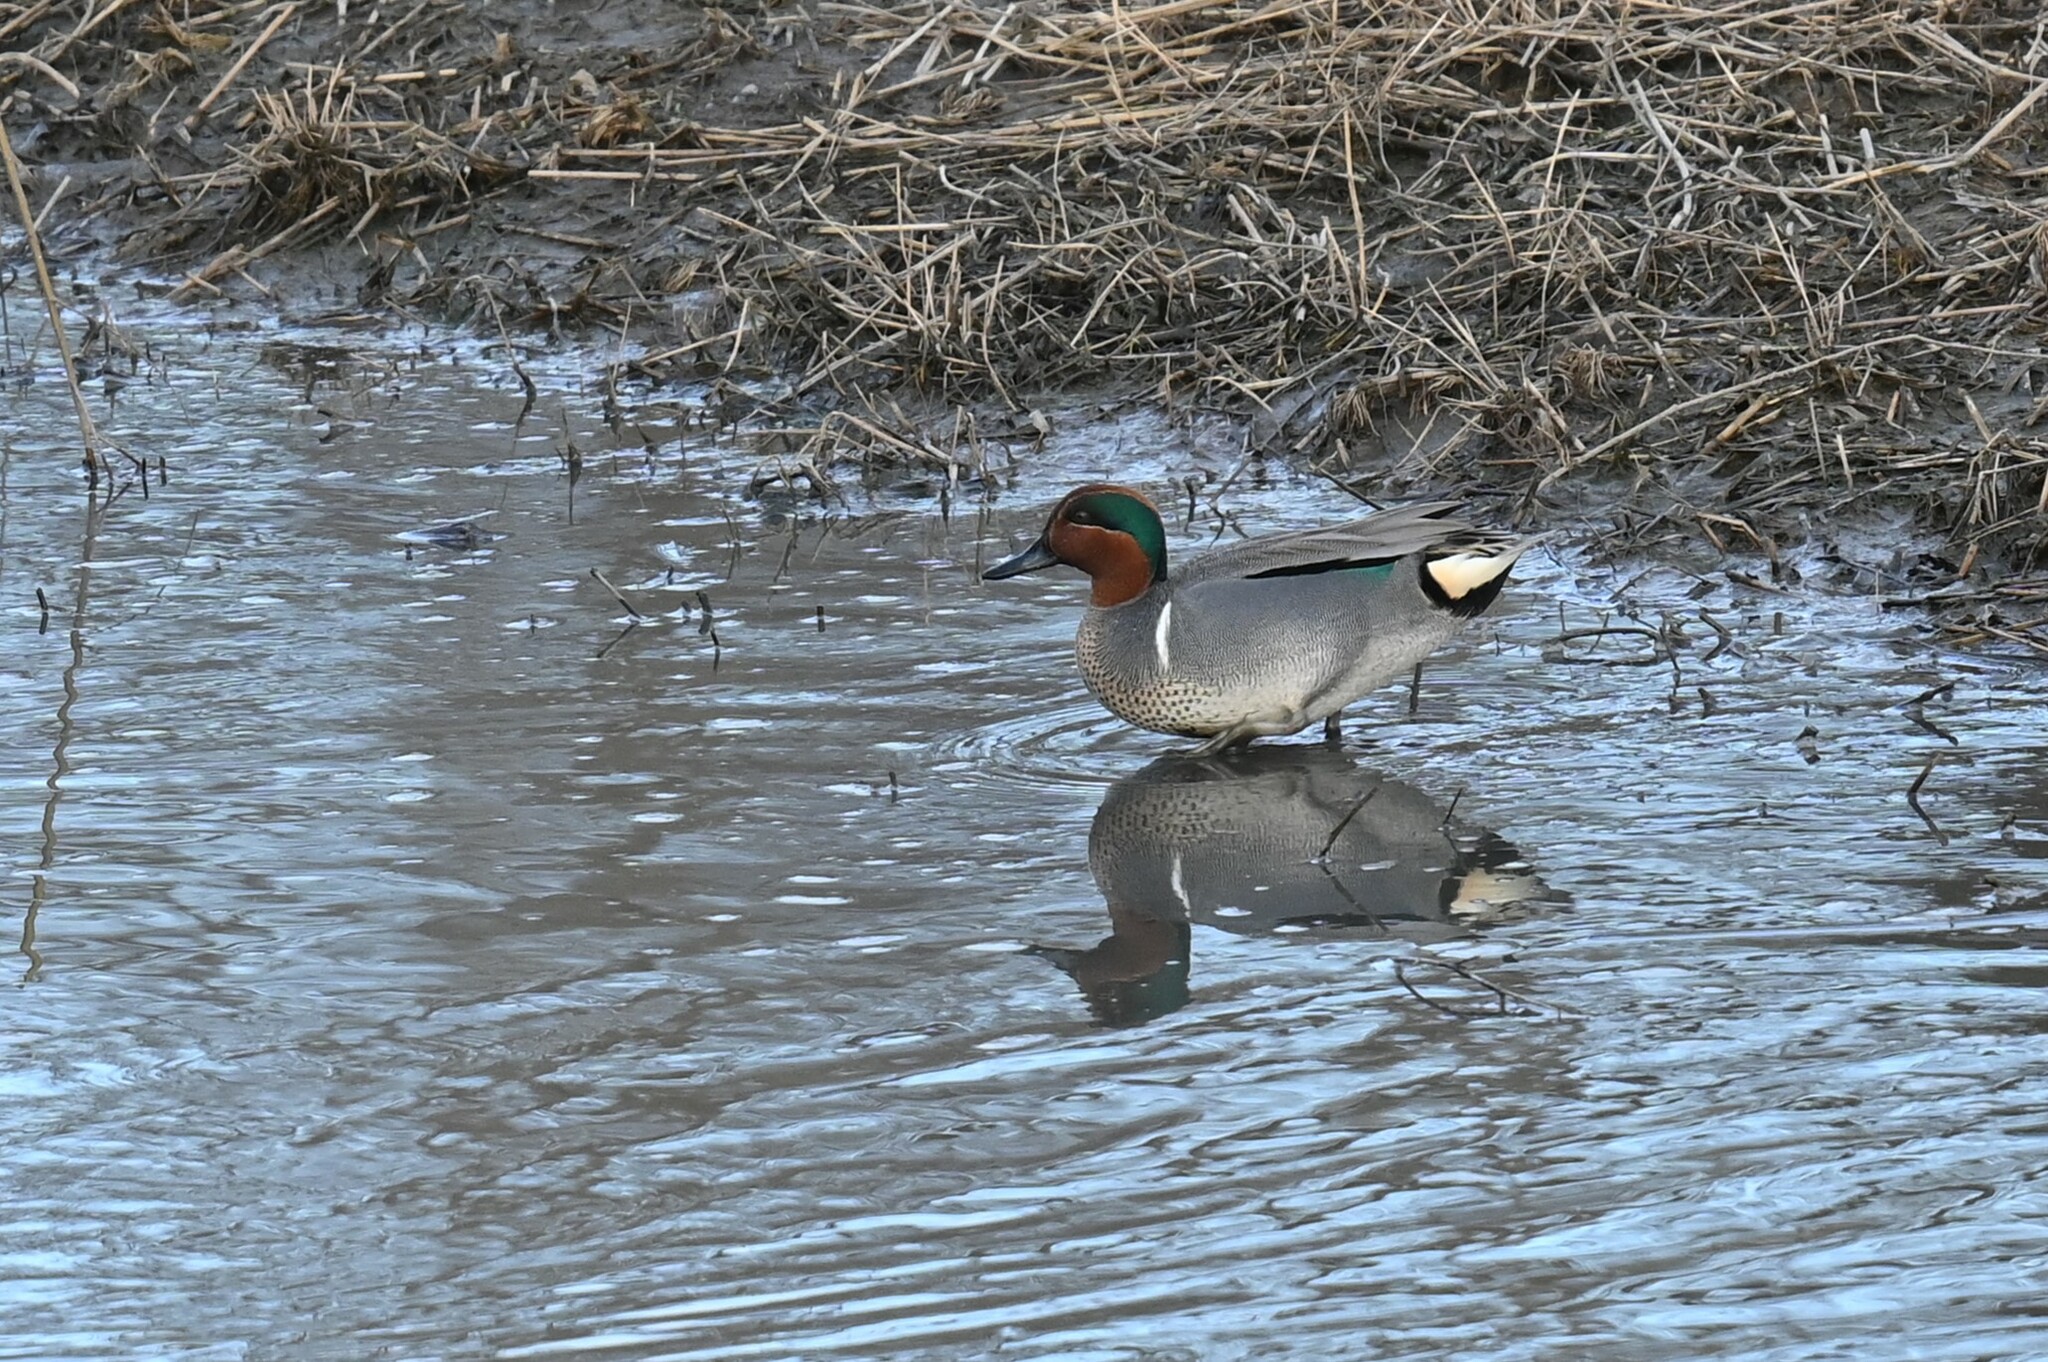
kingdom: Animalia
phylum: Chordata
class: Aves
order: Anseriformes
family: Anatidae
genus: Anas
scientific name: Anas crecca
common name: Eurasian teal
